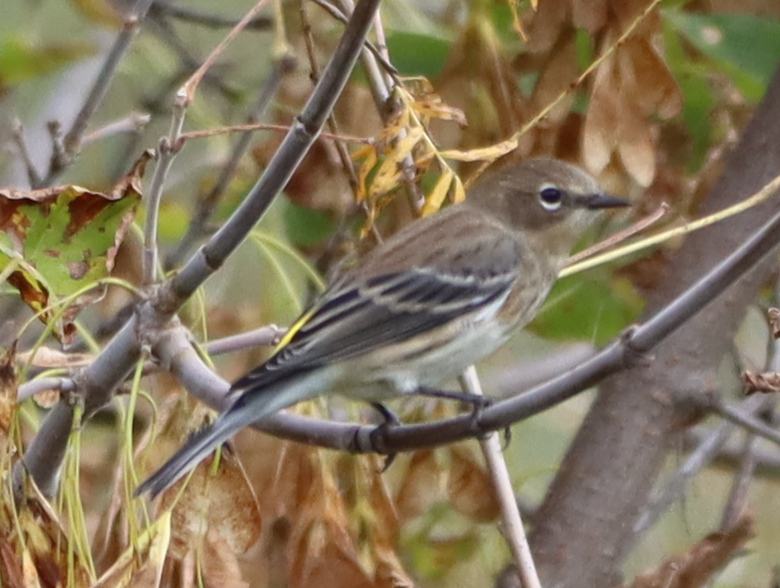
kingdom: Animalia
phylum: Chordata
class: Aves
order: Passeriformes
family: Parulidae
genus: Setophaga
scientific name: Setophaga coronata
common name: Myrtle warbler
